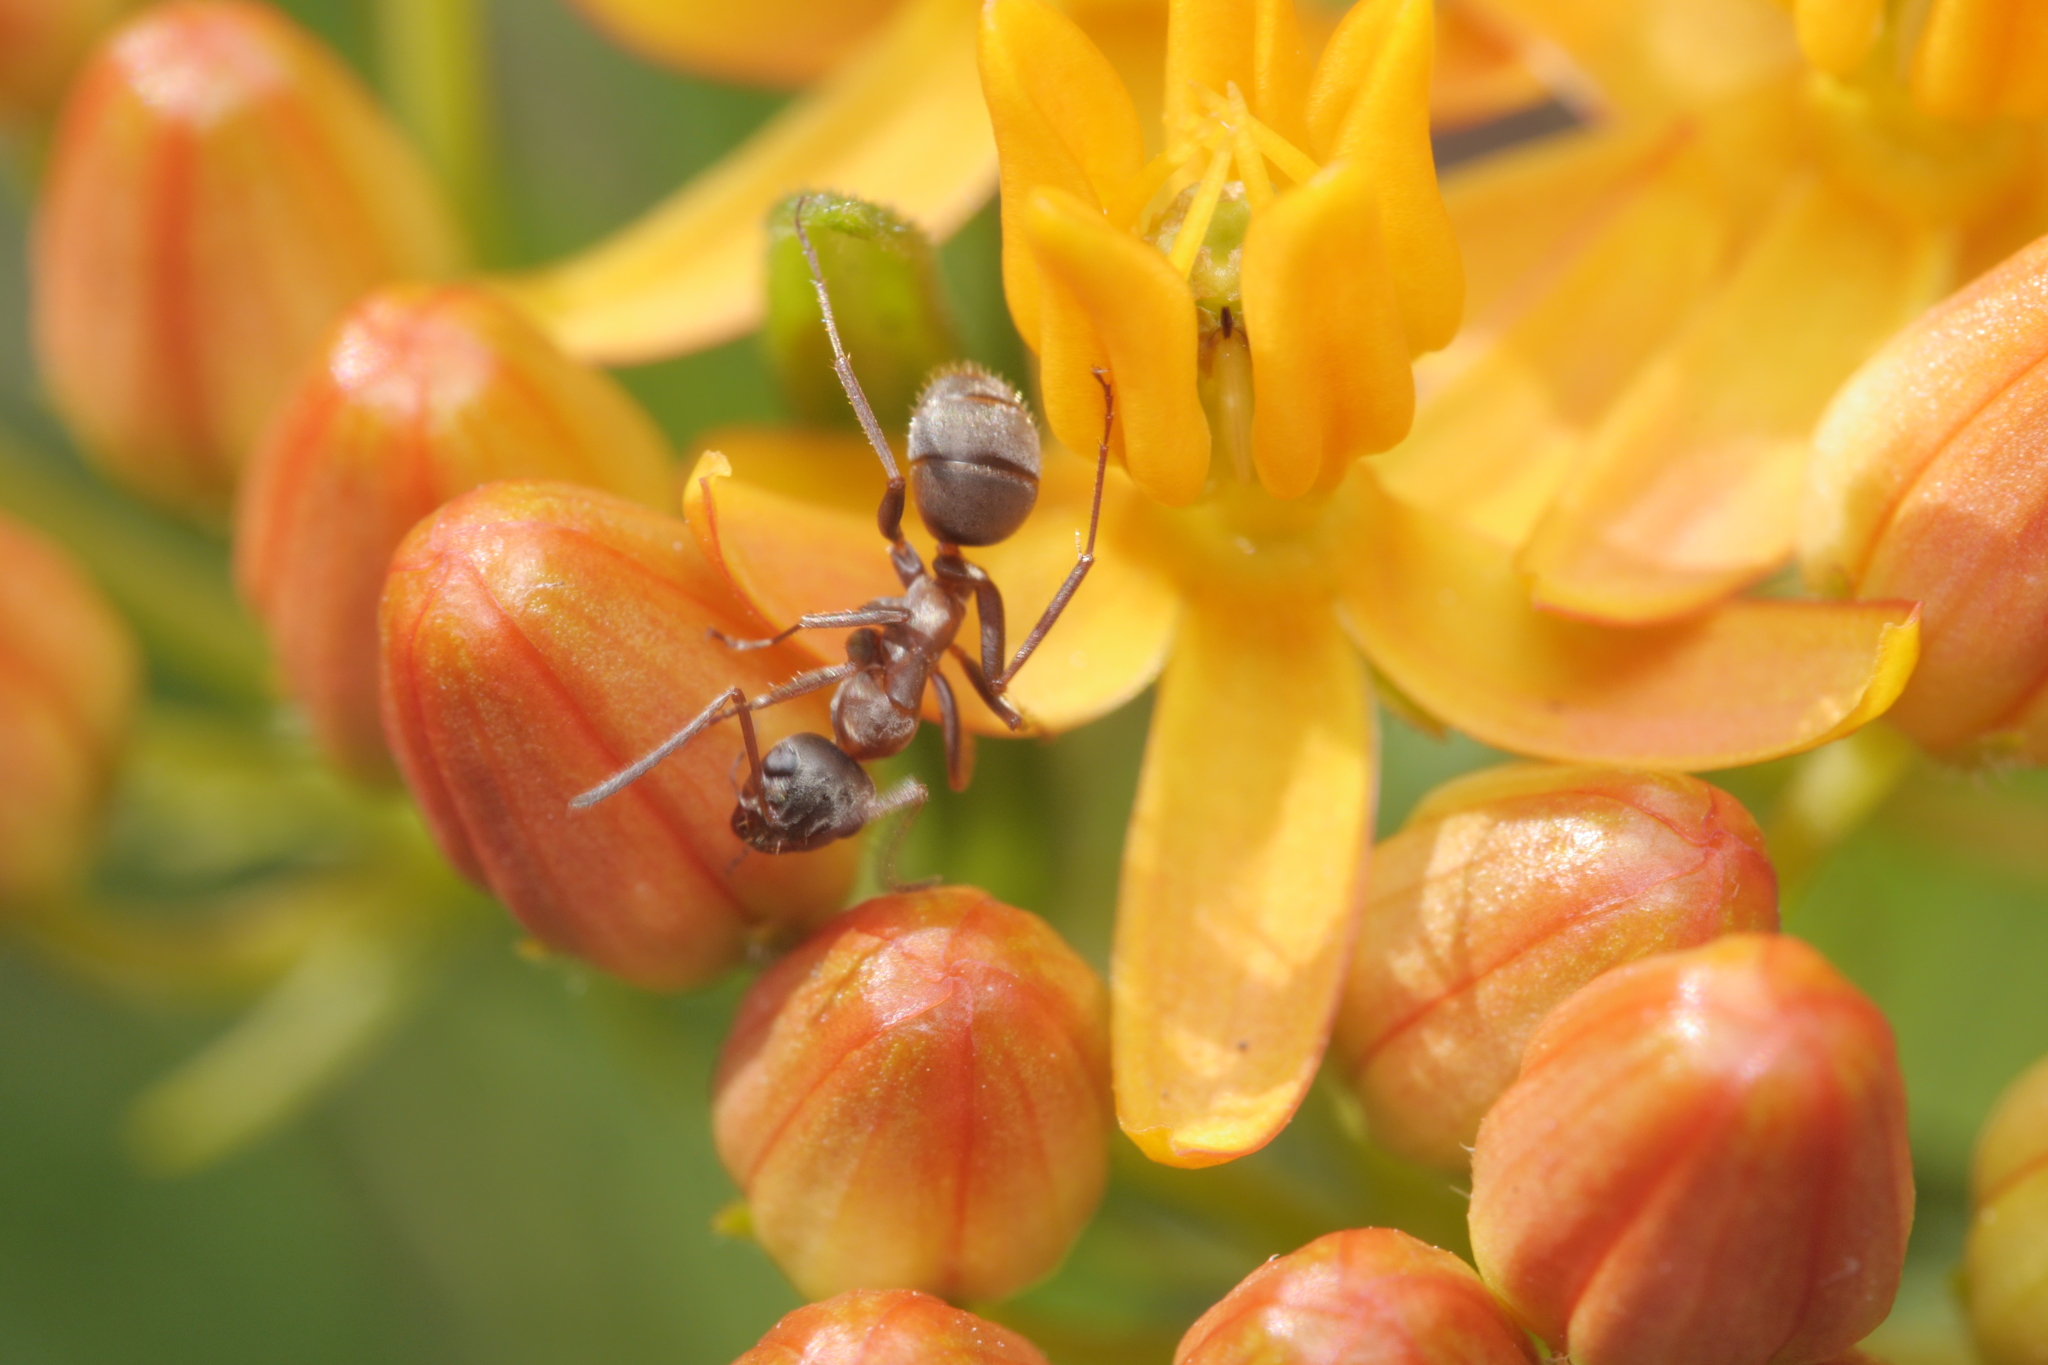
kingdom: Animalia
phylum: Arthropoda
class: Insecta
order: Hymenoptera
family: Formicidae
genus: Formica
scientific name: Formica cunicularia
